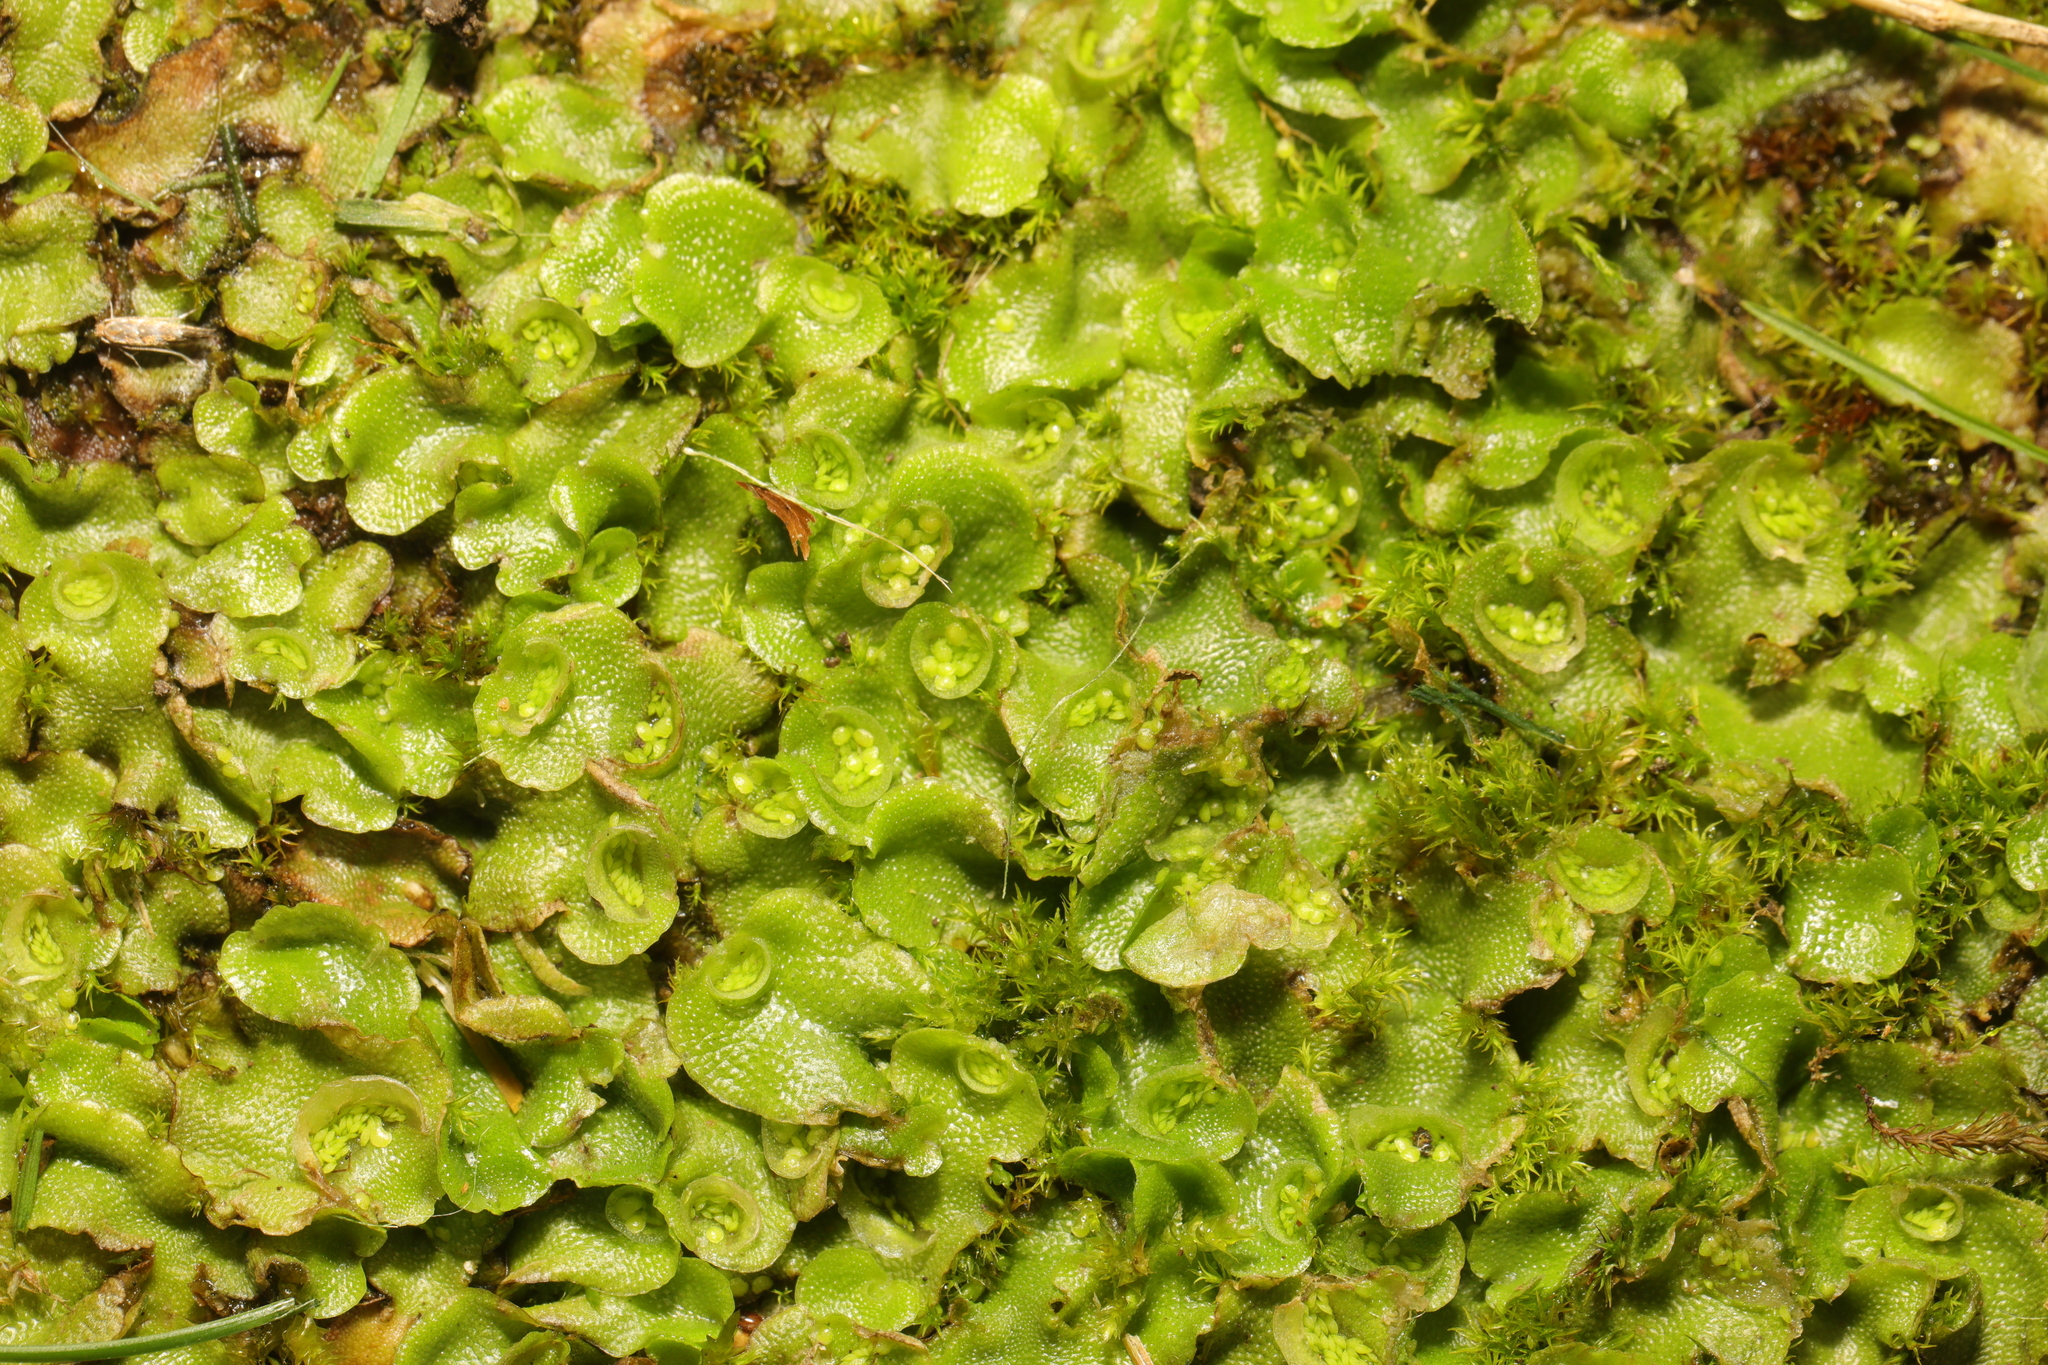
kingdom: Plantae
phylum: Marchantiophyta
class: Marchantiopsida
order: Lunulariales
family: Lunulariaceae
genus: Lunularia
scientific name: Lunularia cruciata
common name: Crescent-cup liverwort
